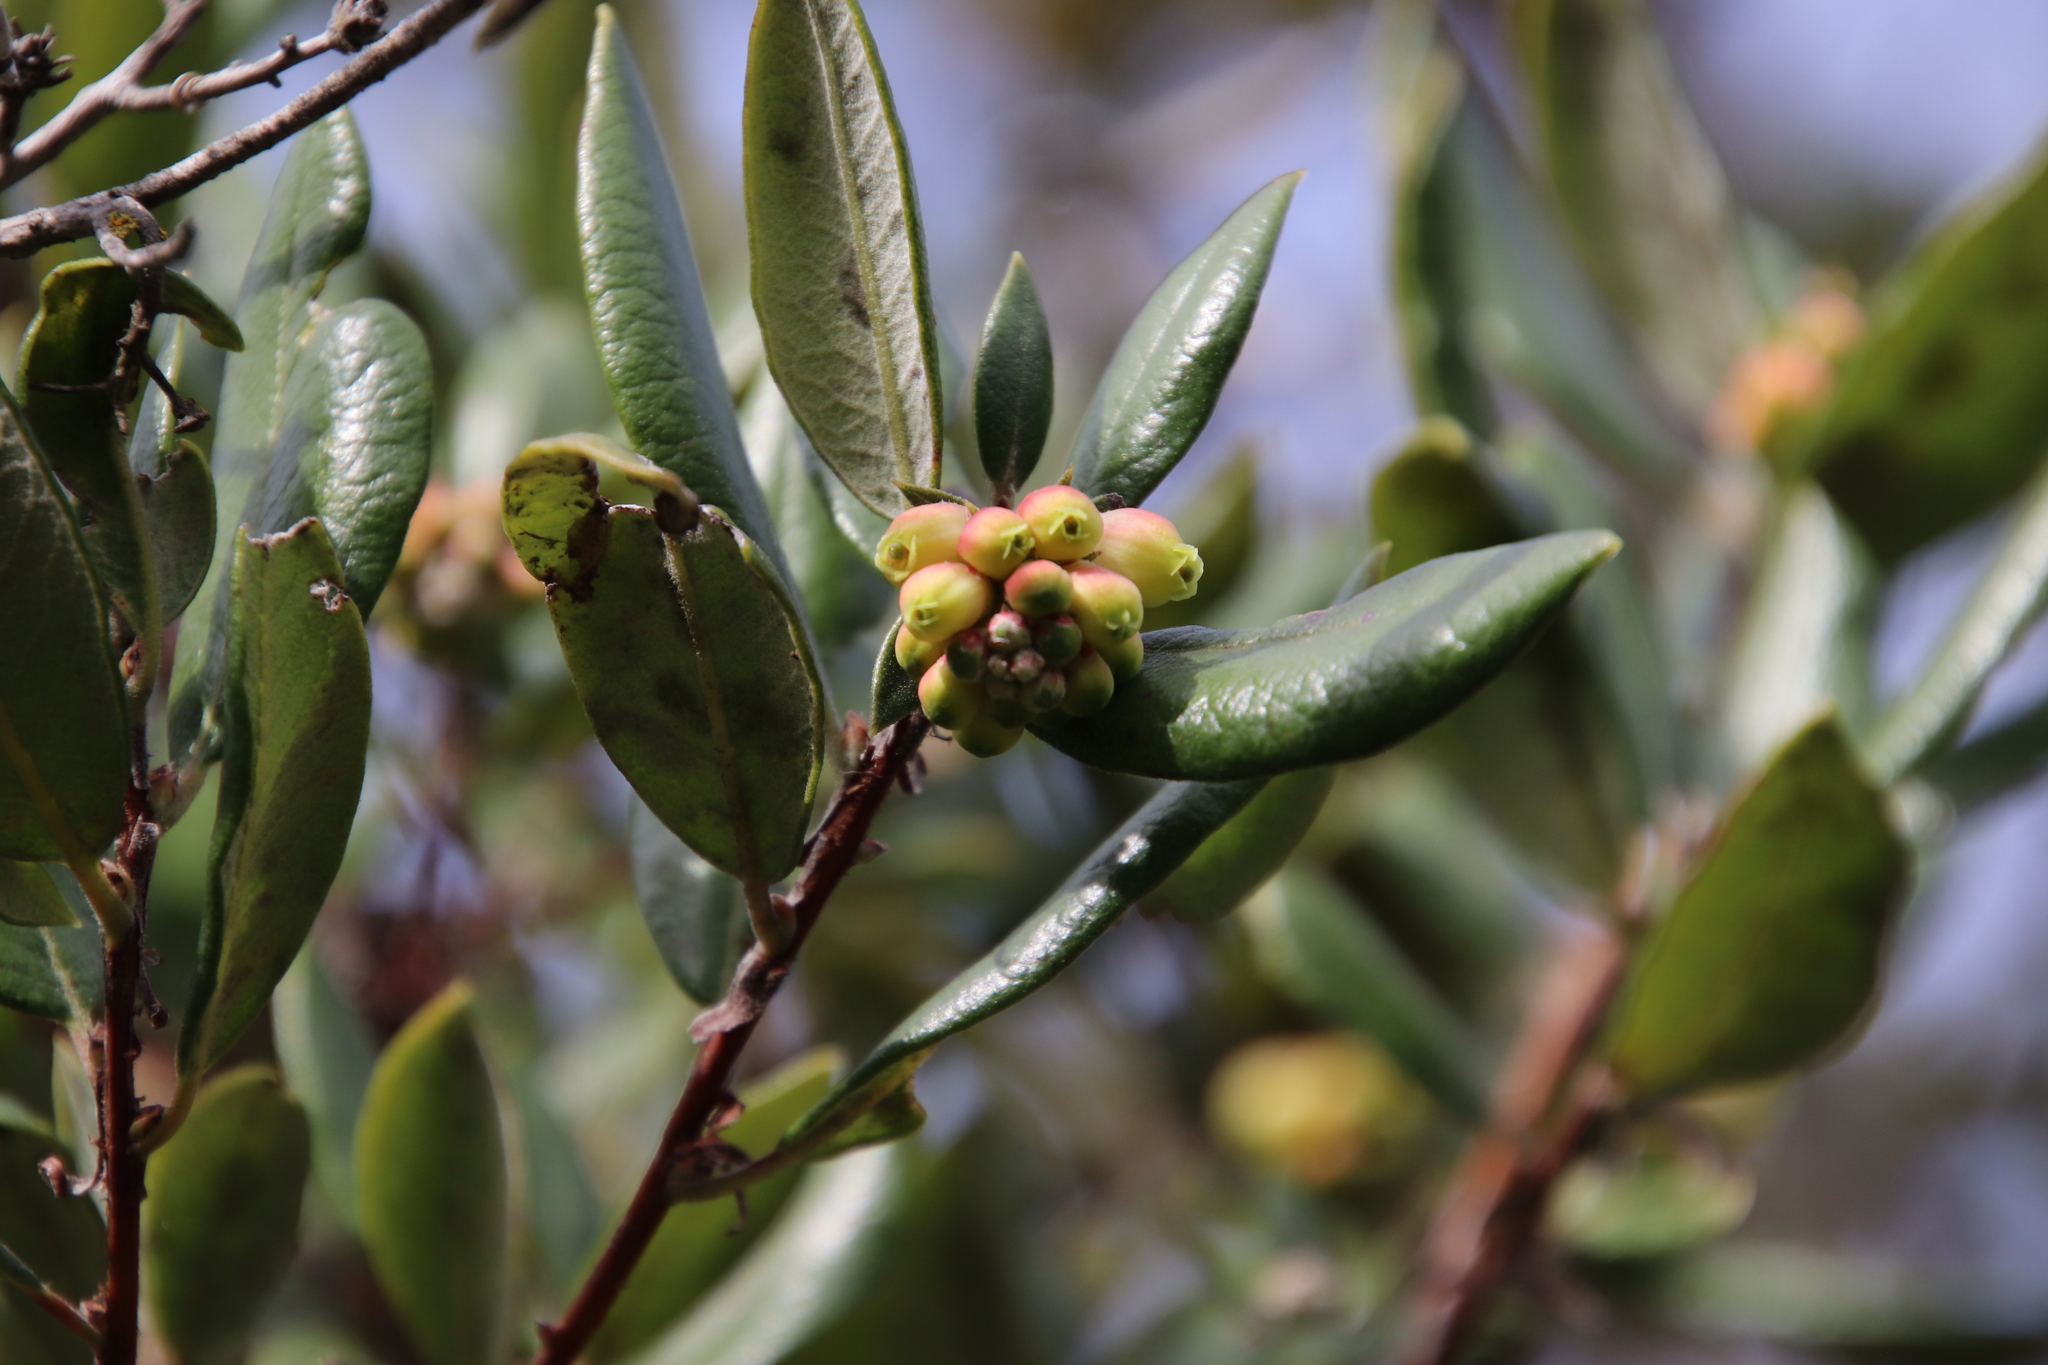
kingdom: Plantae
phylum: Tracheophyta
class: Magnoliopsida
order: Ericales
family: Ericaceae
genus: Arctostaphylos
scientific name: Arctostaphylos bicolor
